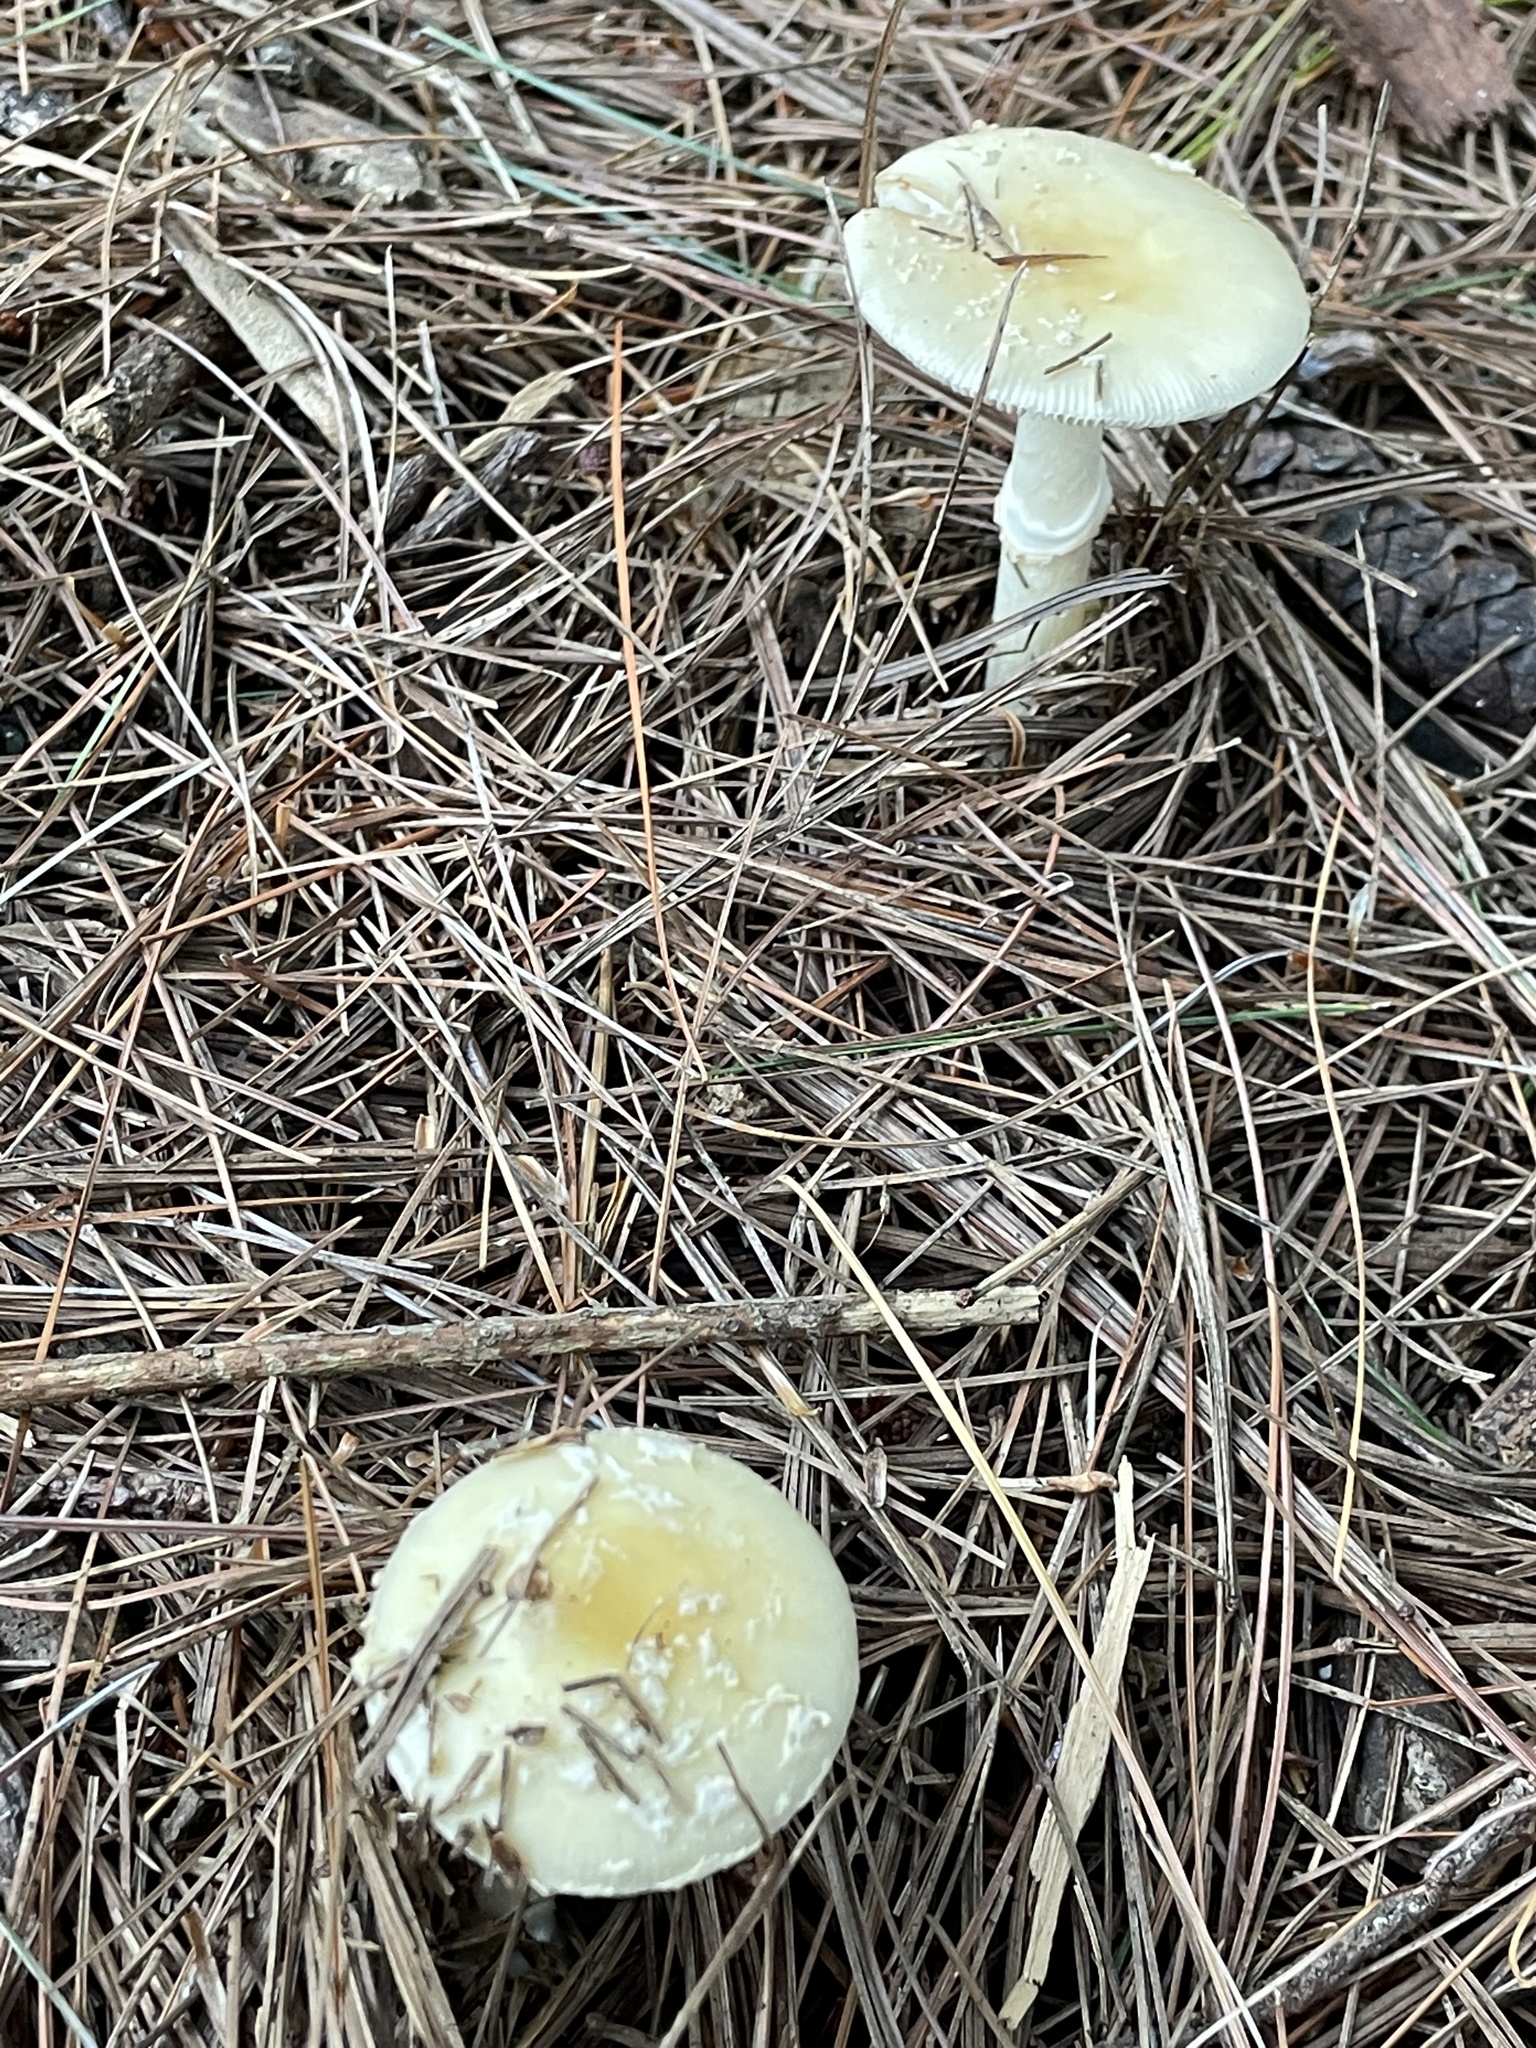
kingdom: Fungi
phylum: Basidiomycota
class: Agaricomycetes
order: Agaricales
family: Amanitaceae
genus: Amanita
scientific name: Amanita crenulata
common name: Poison champagne amanita
